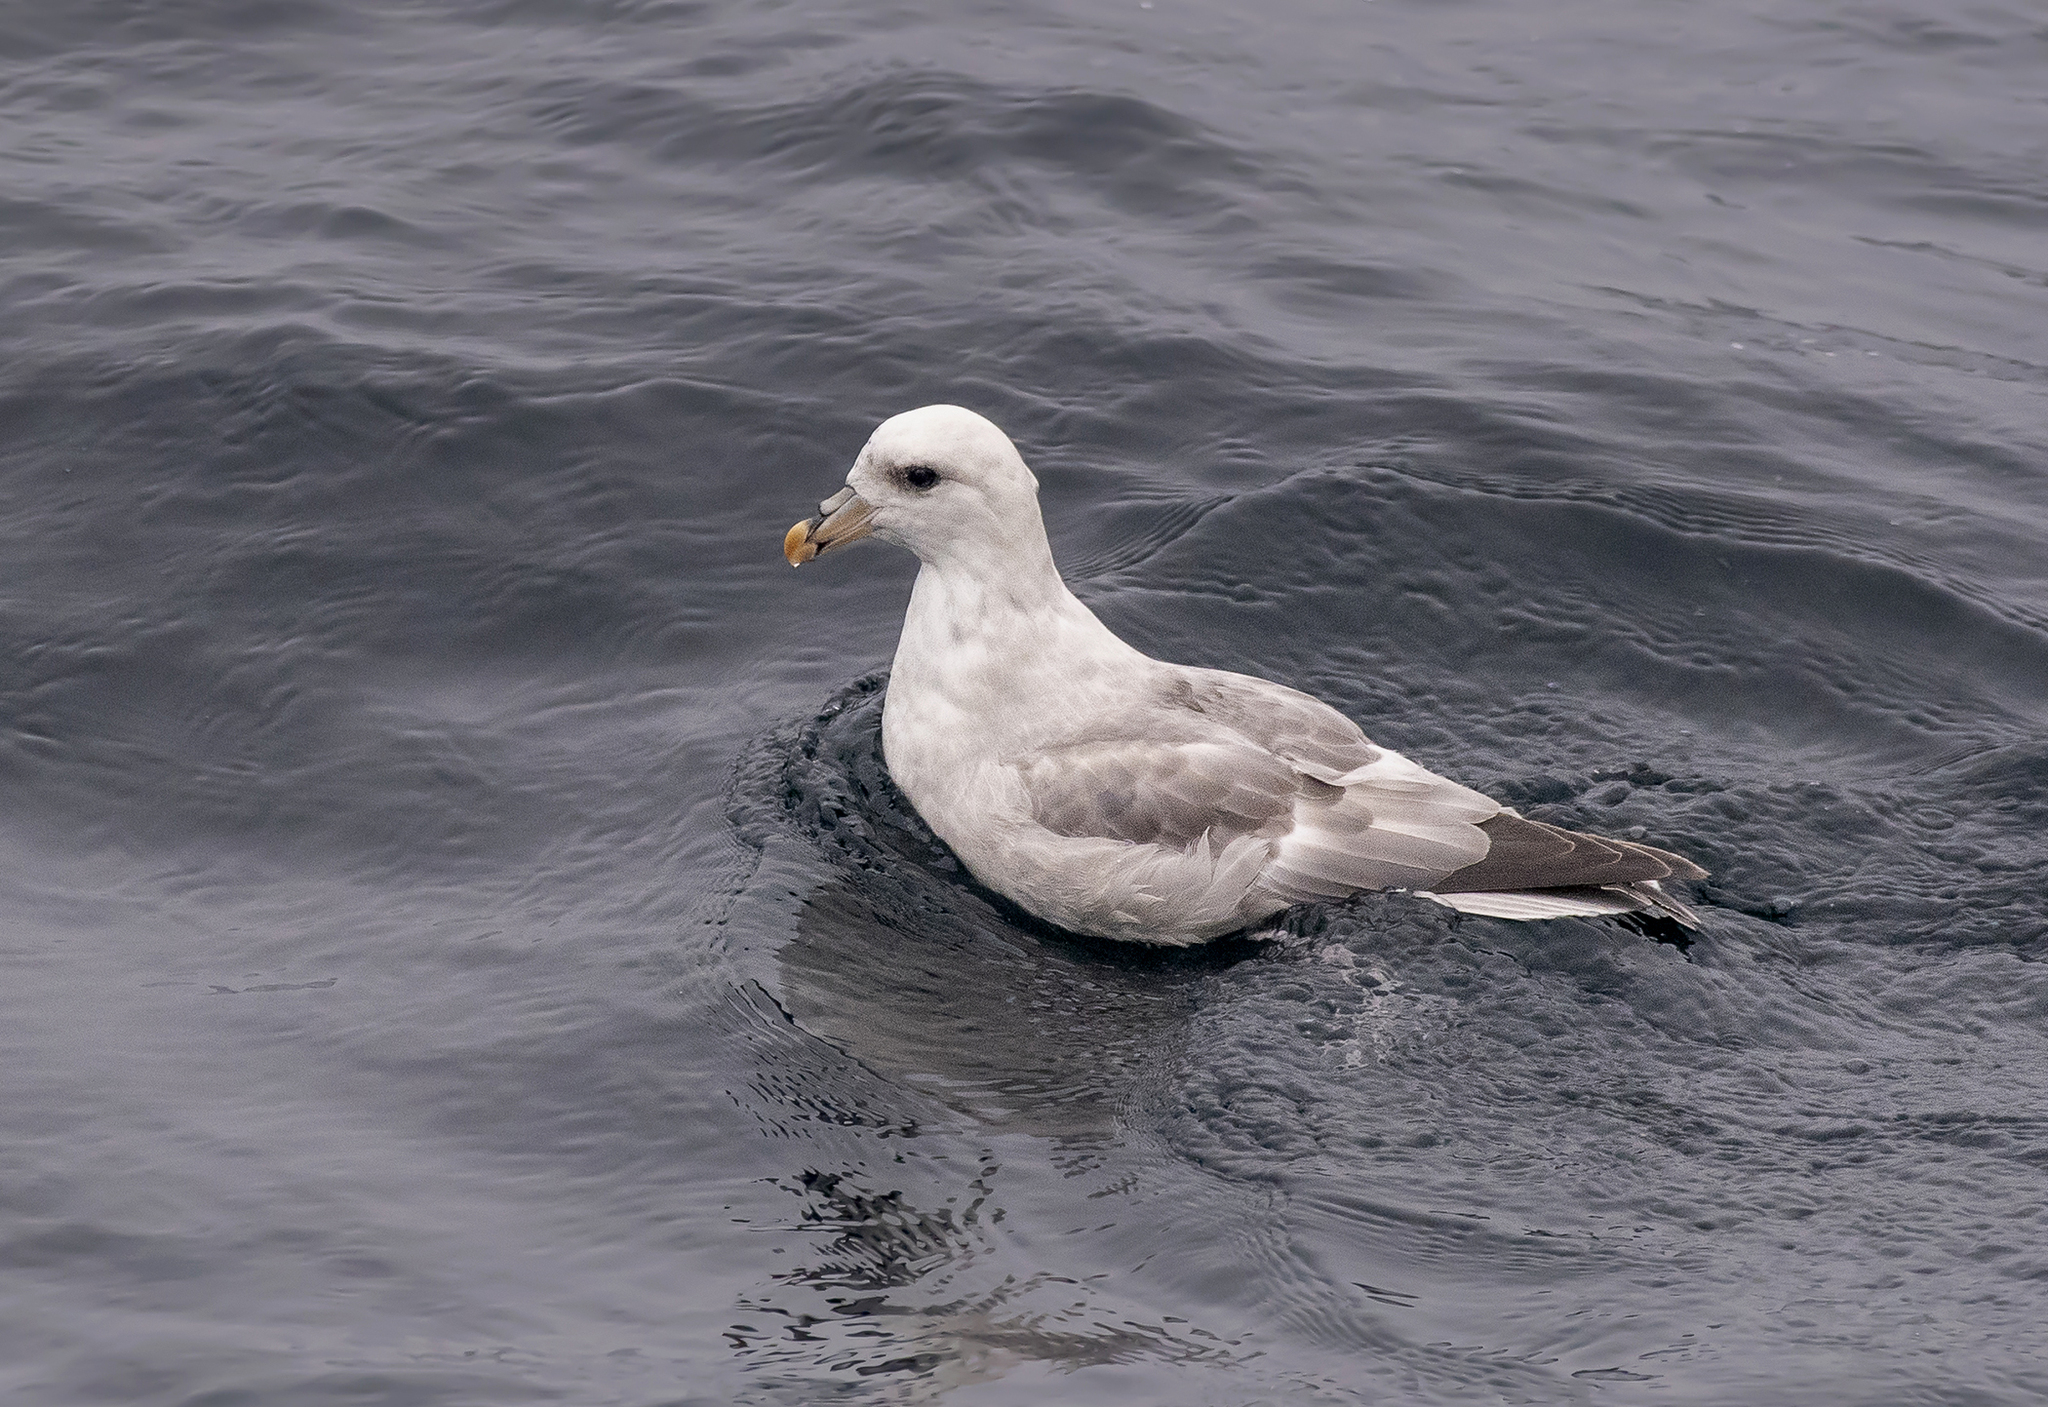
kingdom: Animalia
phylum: Chordata
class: Aves
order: Procellariiformes
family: Procellariidae
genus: Fulmarus
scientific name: Fulmarus glacialis
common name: Northern fulmar
